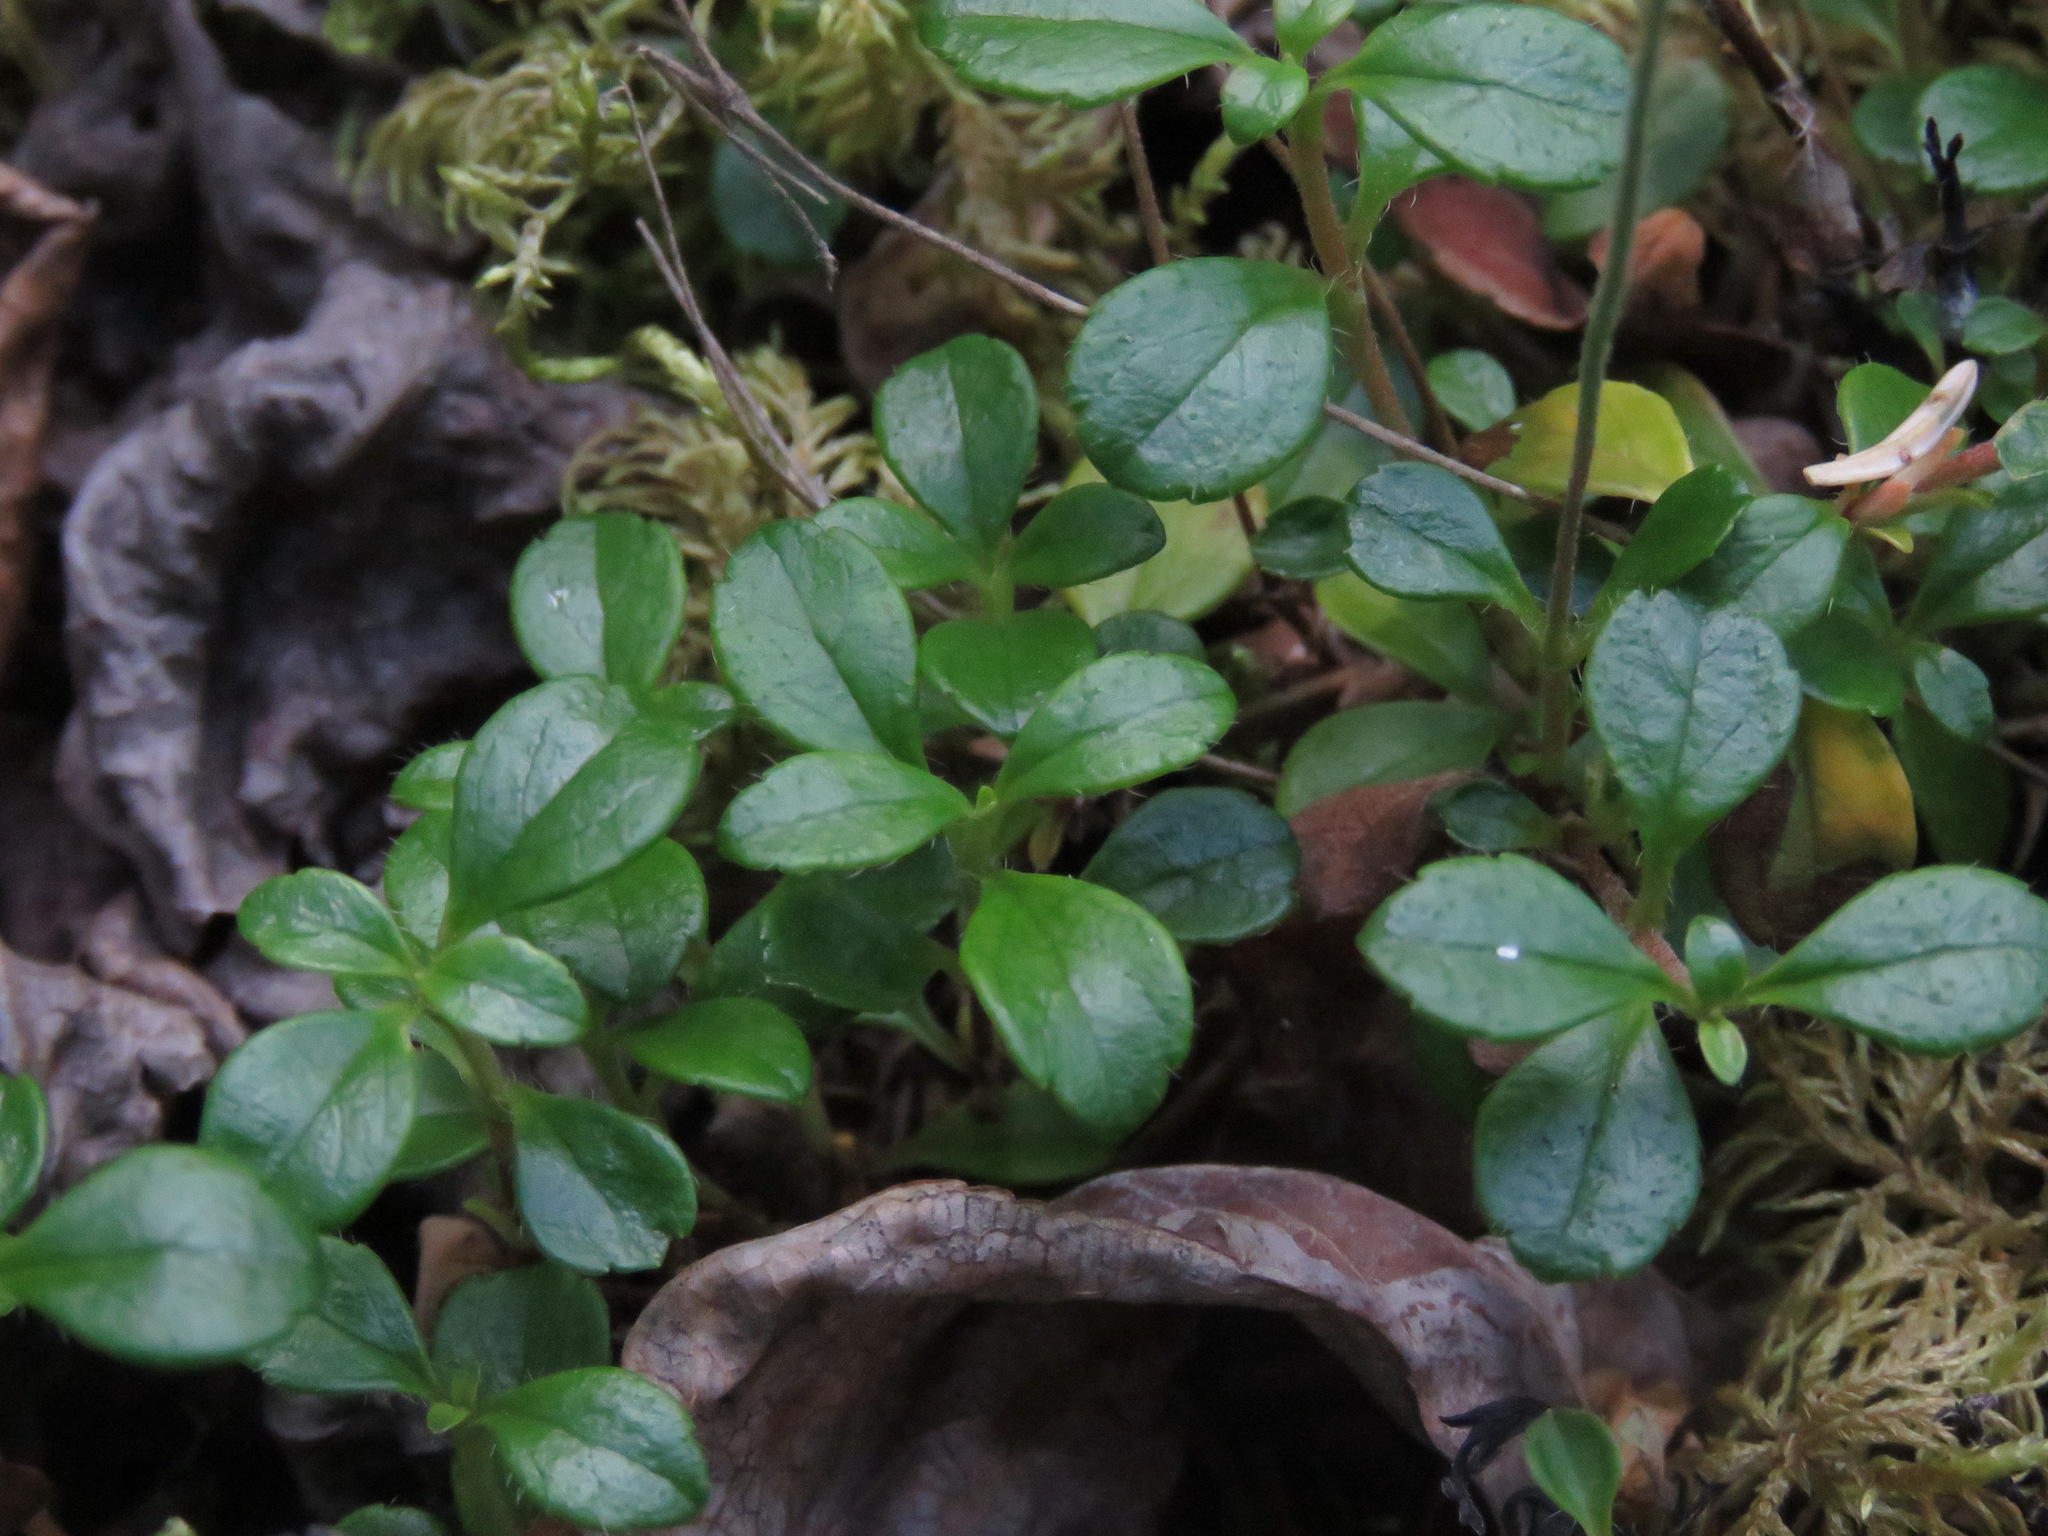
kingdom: Plantae
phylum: Tracheophyta
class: Magnoliopsida
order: Dipsacales
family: Caprifoliaceae
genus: Linnaea
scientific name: Linnaea borealis
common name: Twinflower
